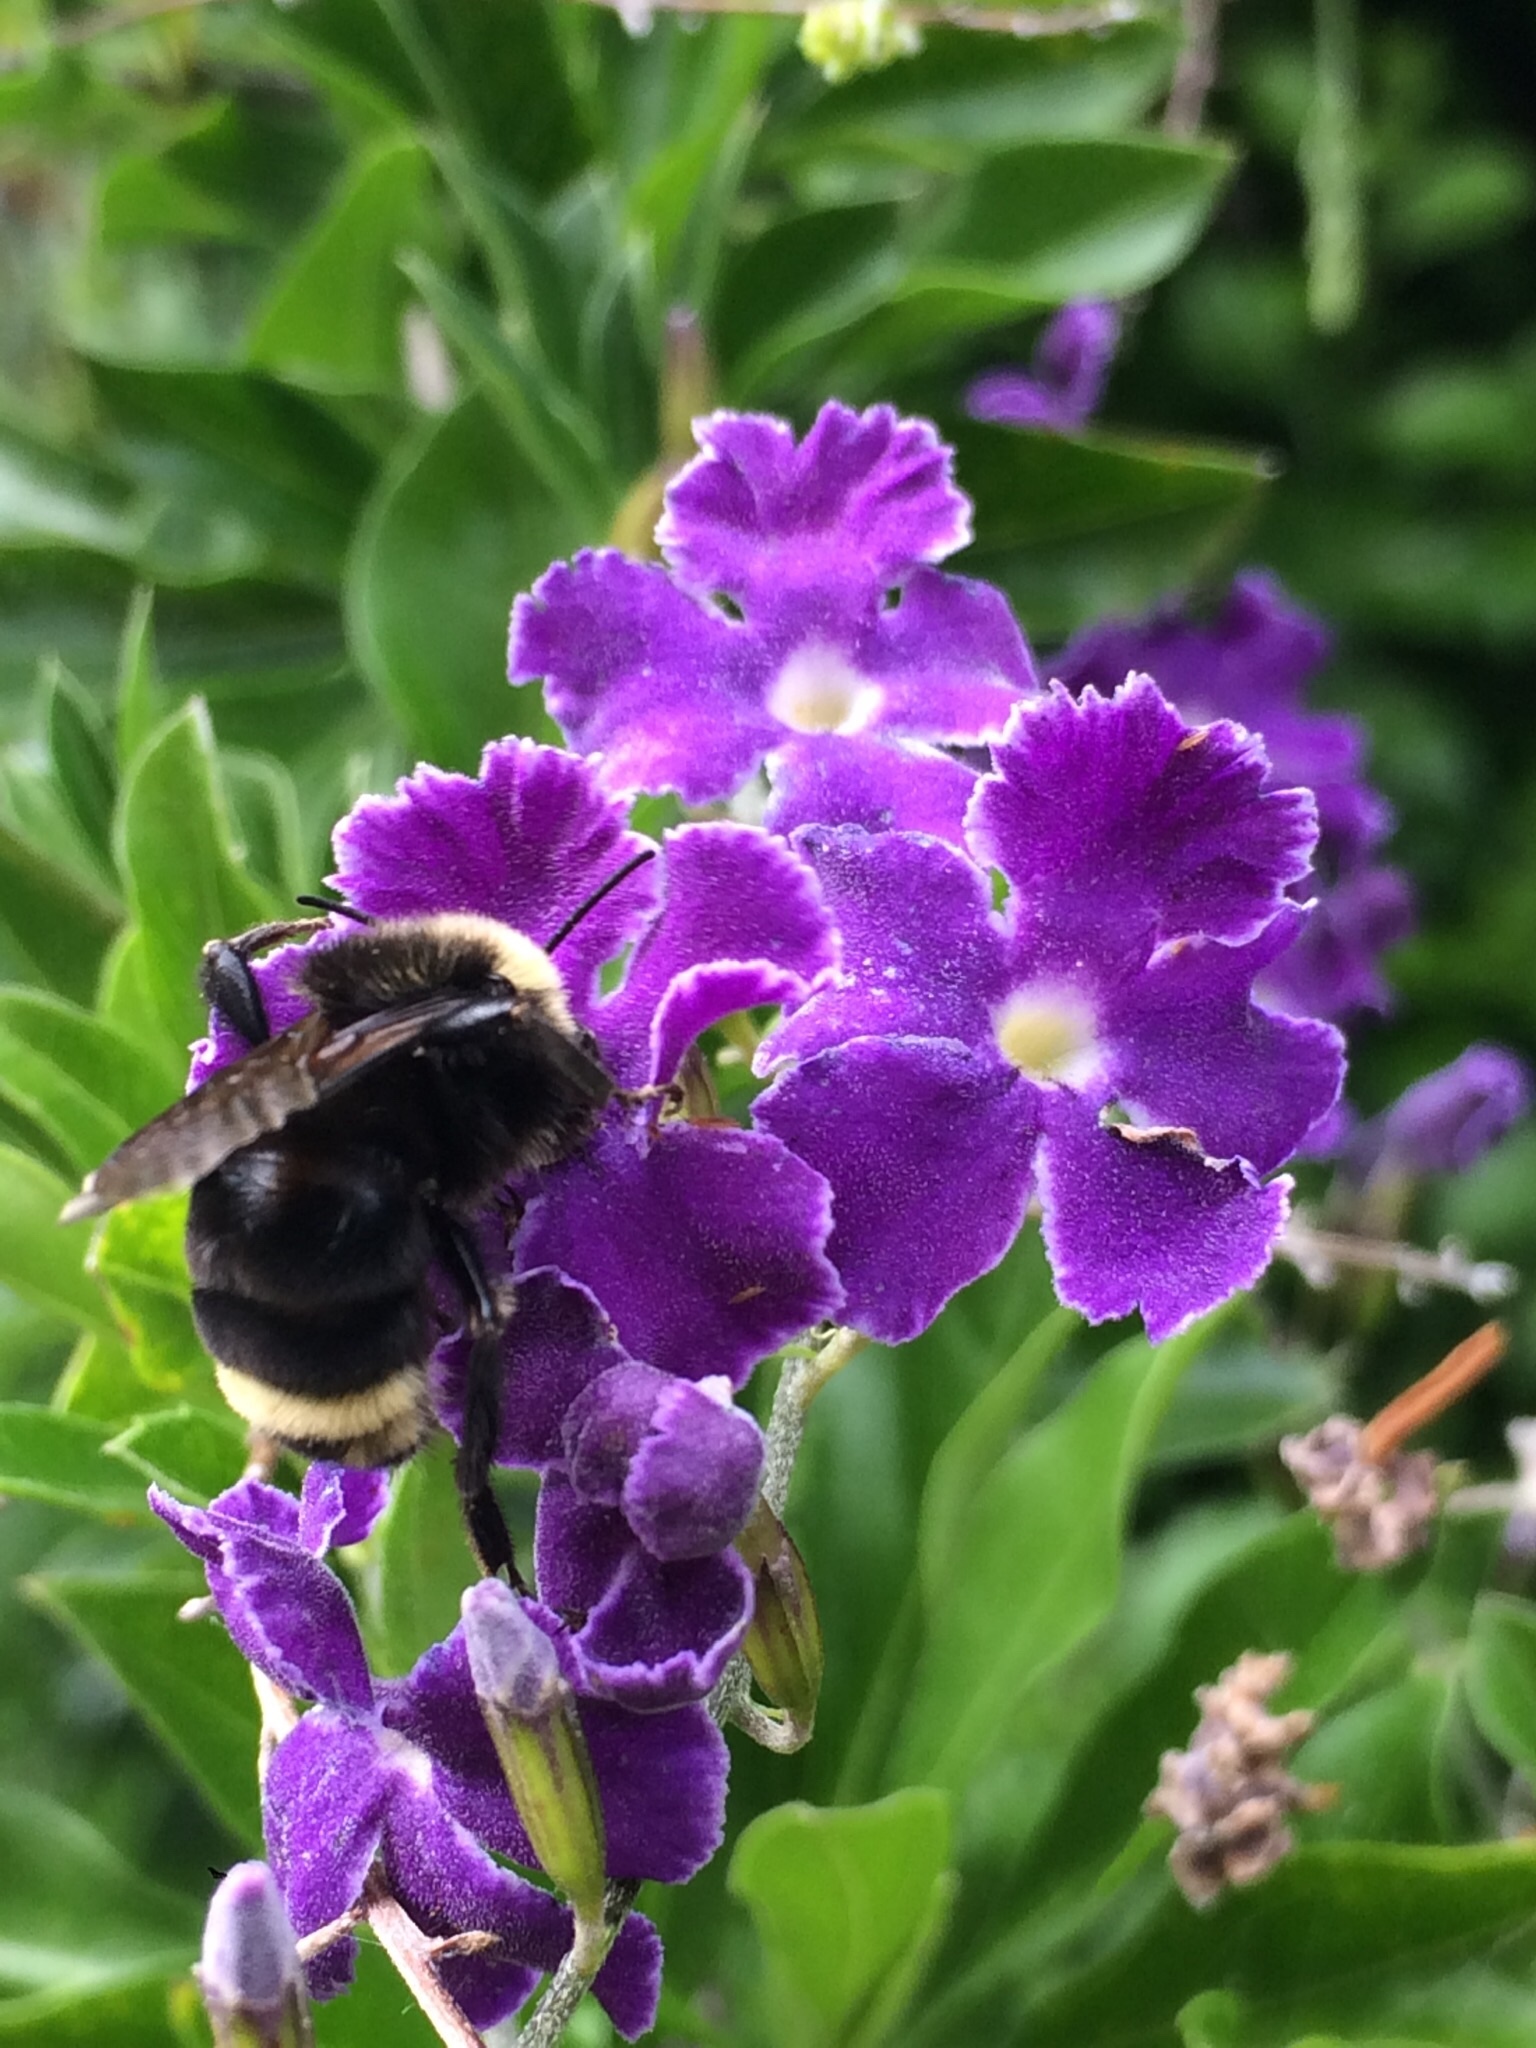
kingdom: Animalia
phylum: Arthropoda
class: Insecta
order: Hymenoptera
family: Apidae
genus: Pyrobombus
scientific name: Pyrobombus
